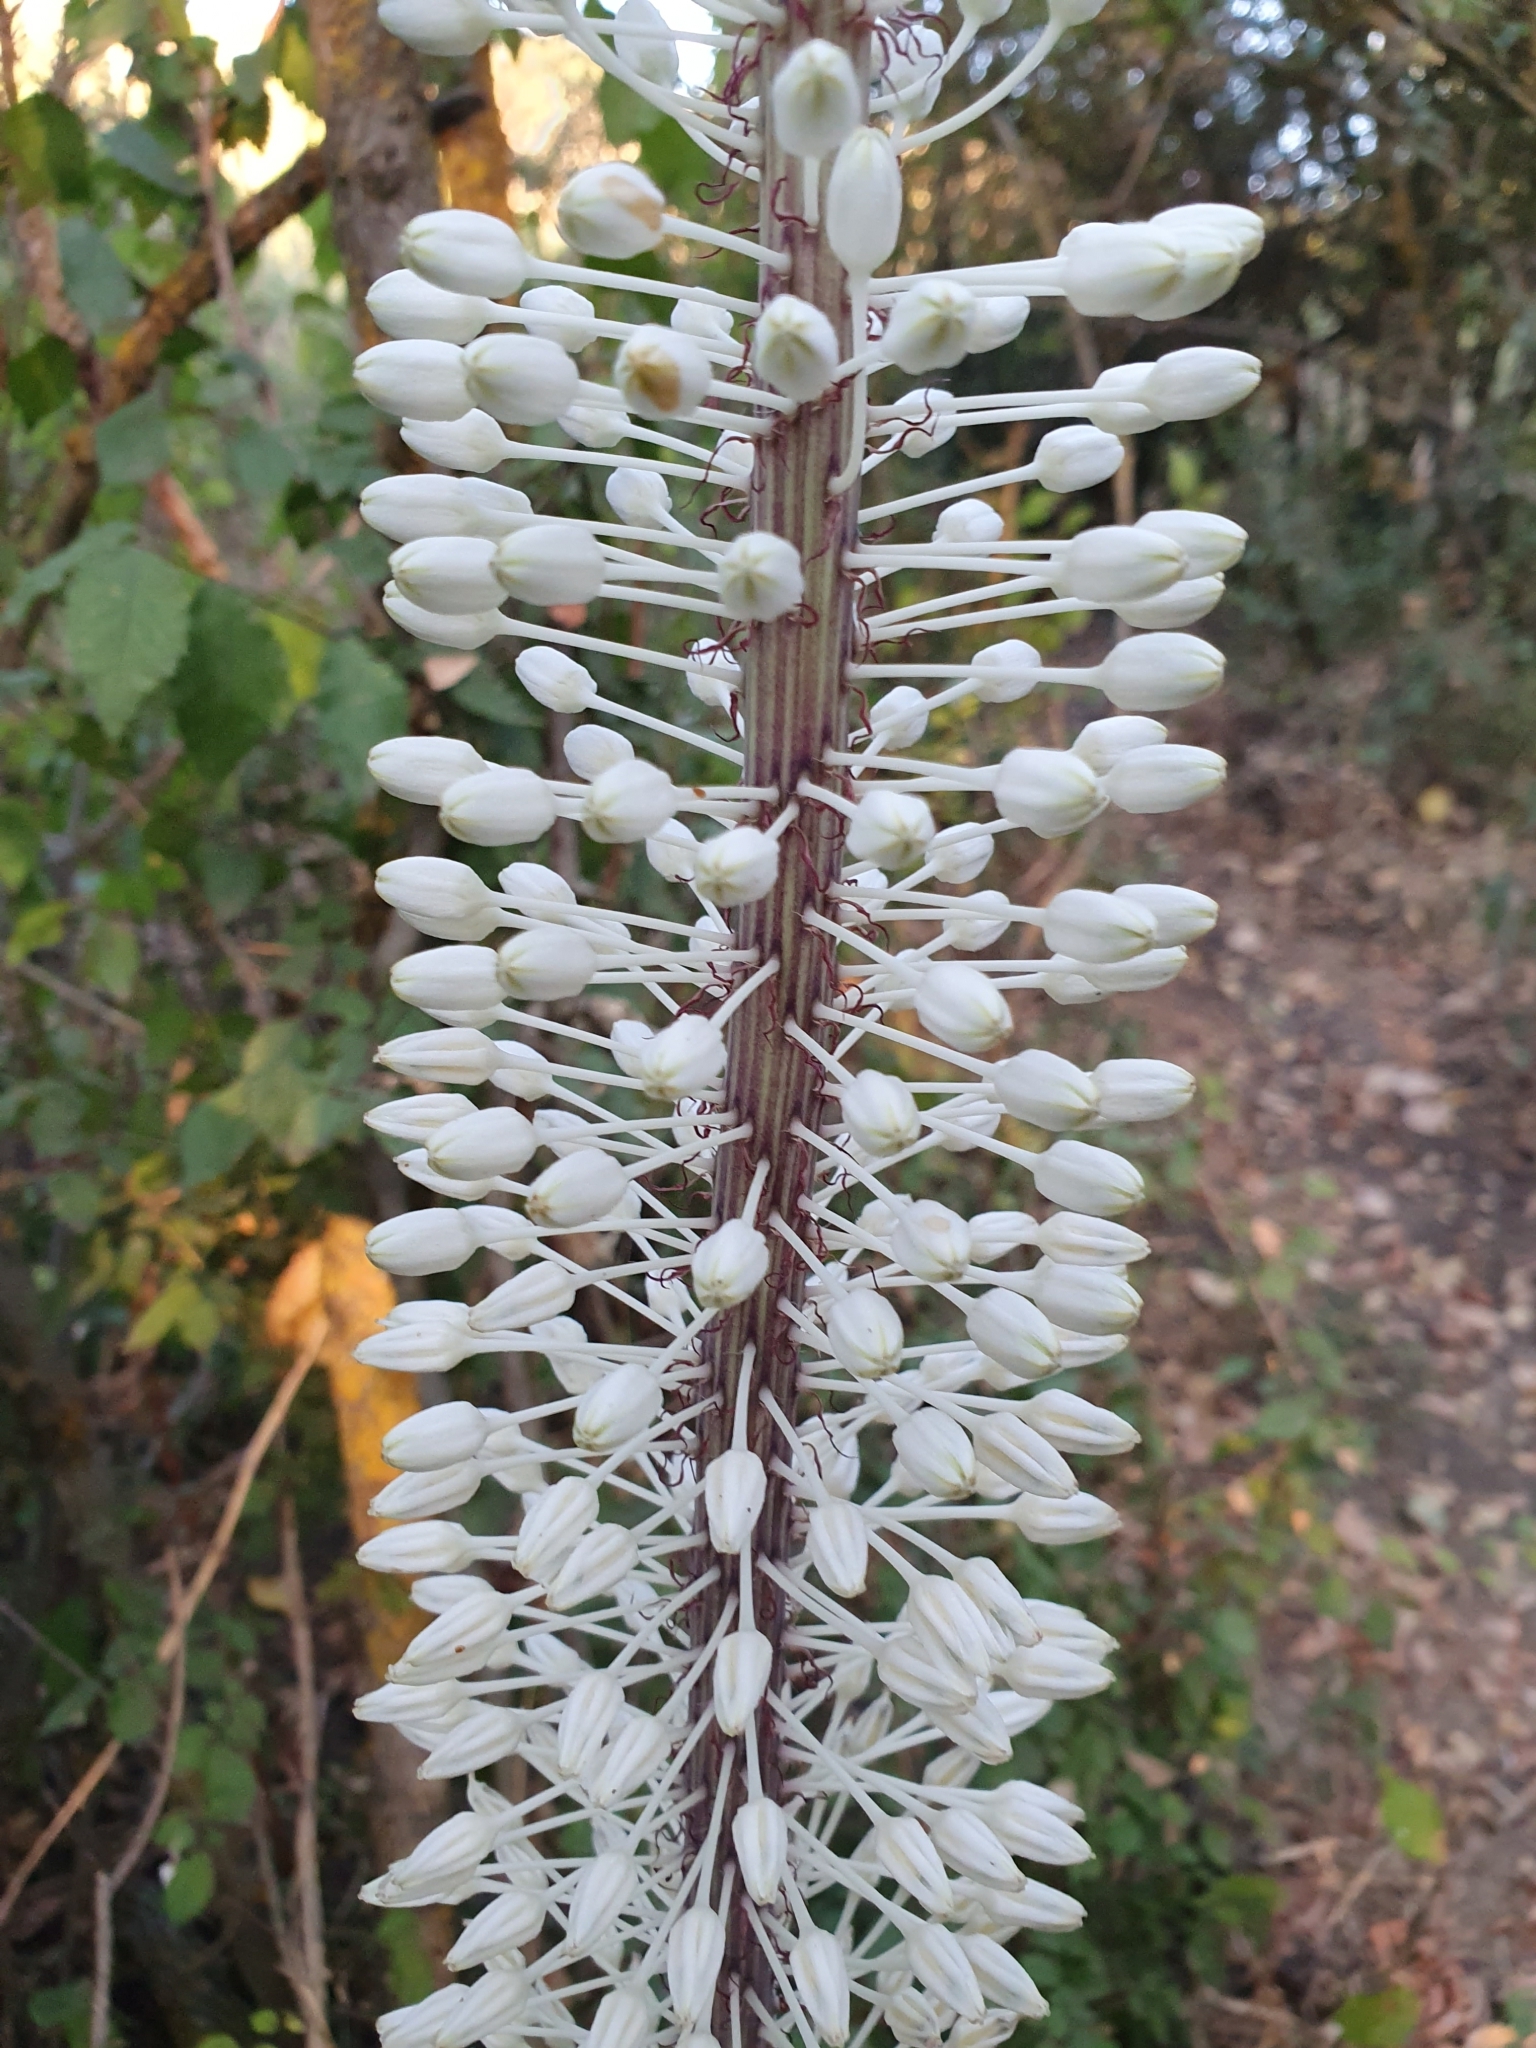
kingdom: Plantae
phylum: Tracheophyta
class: Liliopsida
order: Asparagales
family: Asparagaceae
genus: Drimia
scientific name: Drimia numidica
